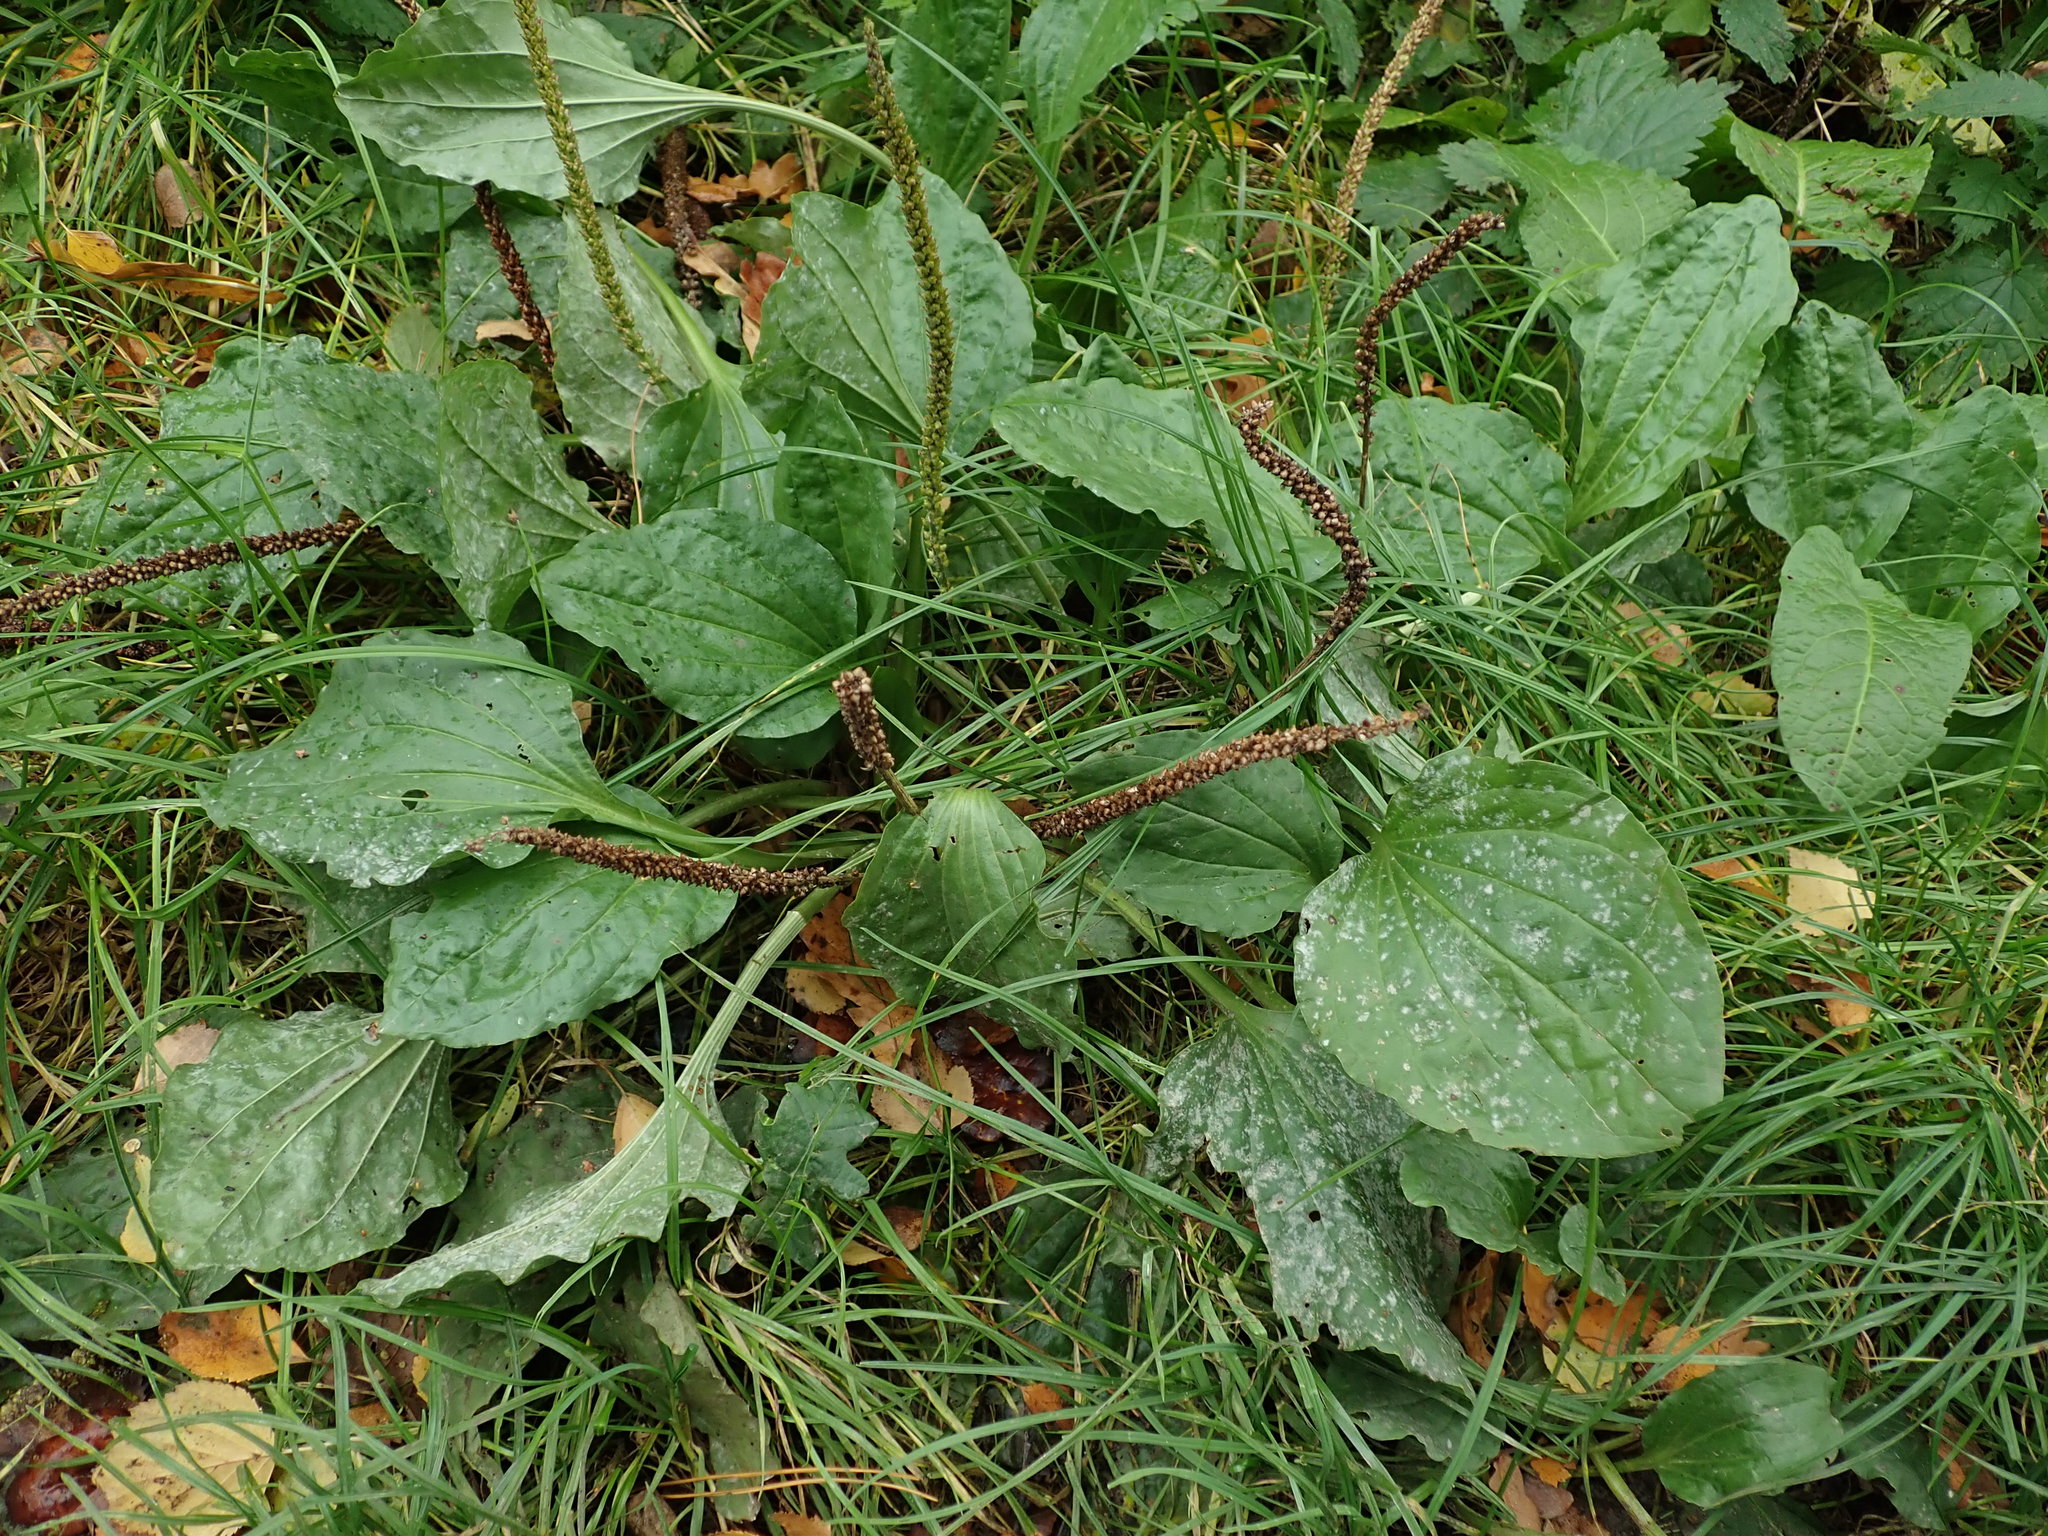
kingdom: Plantae
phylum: Tracheophyta
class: Magnoliopsida
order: Lamiales
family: Plantaginaceae
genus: Plantago
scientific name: Plantago major
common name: Common plantain
